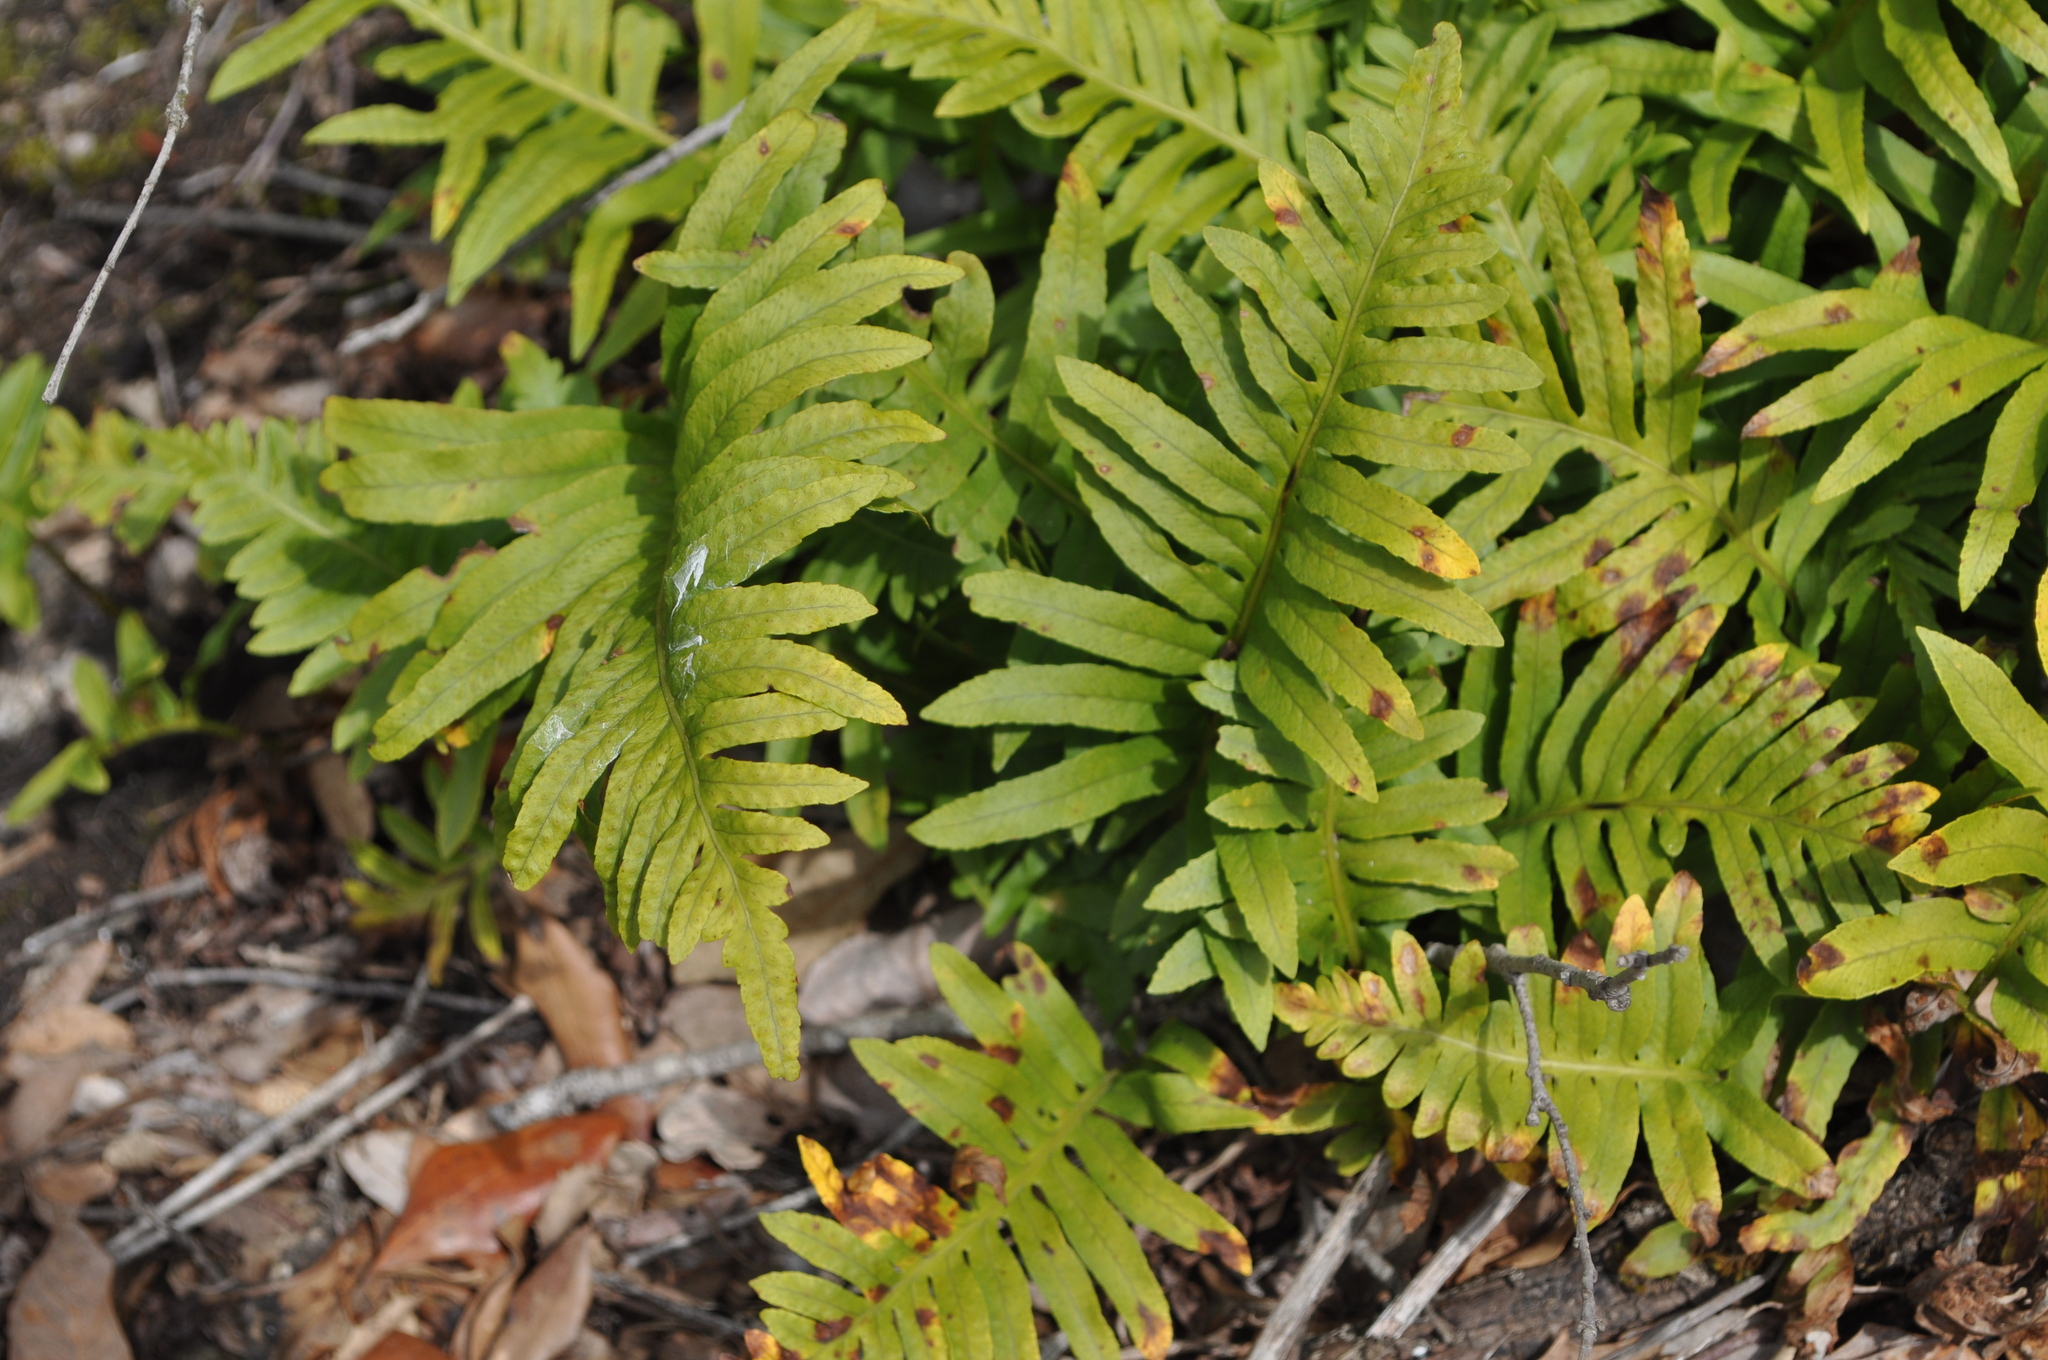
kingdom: Plantae
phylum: Tracheophyta
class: Polypodiopsida
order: Polypodiales
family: Polypodiaceae
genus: Polypodium
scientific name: Polypodium cambricum
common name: Southern polypody
